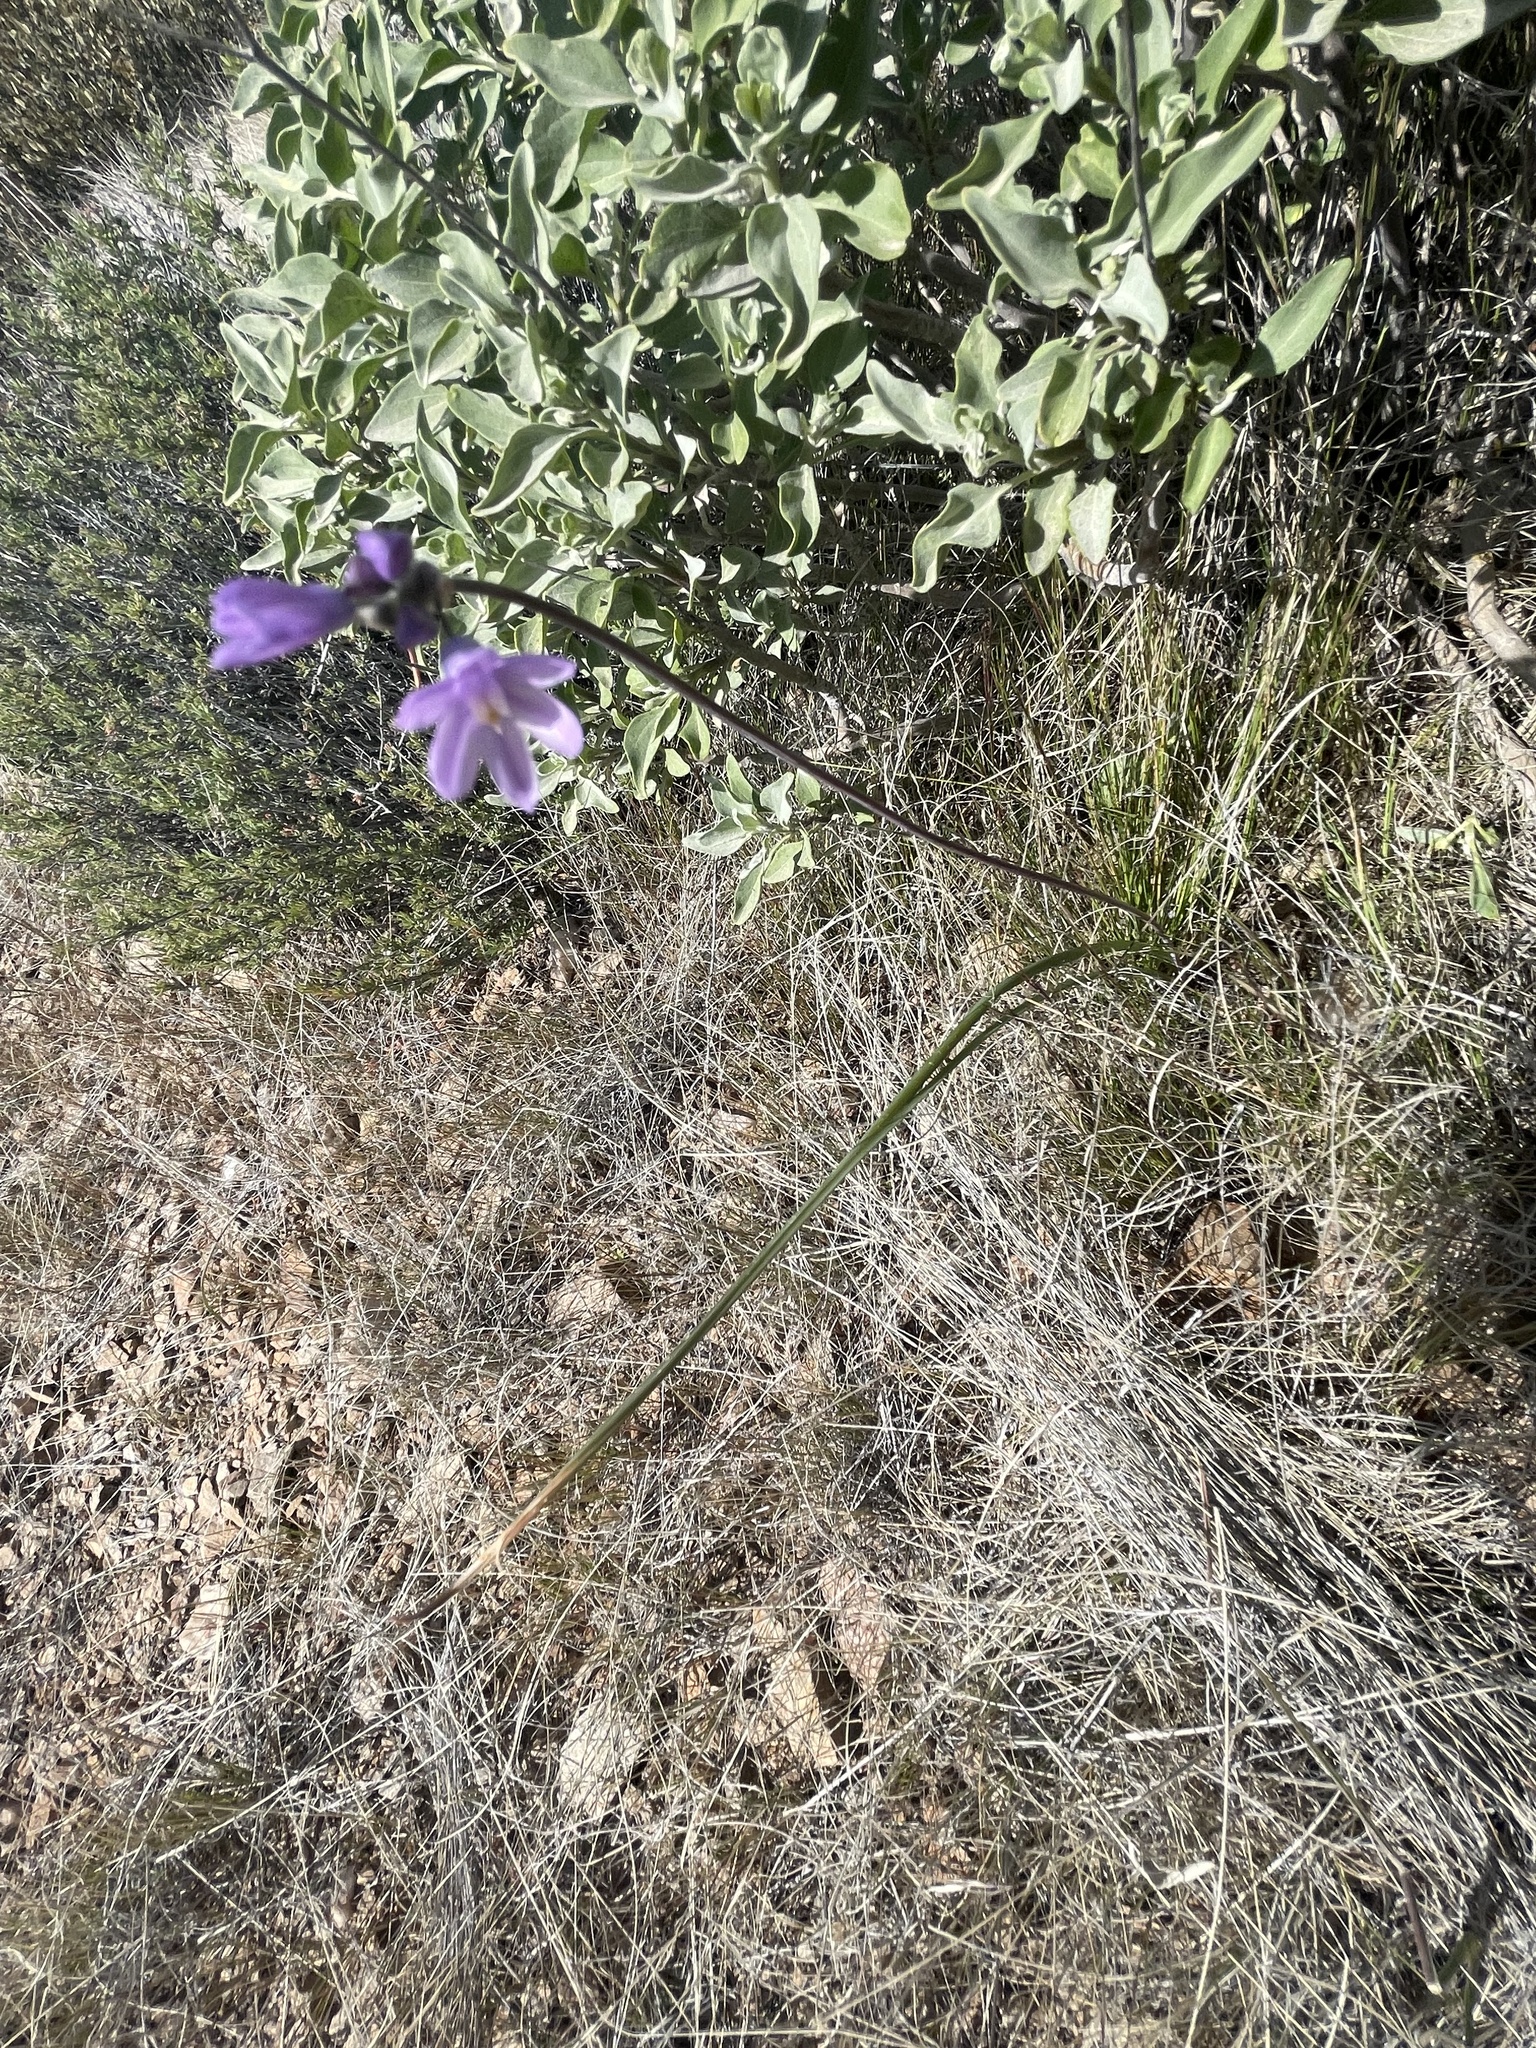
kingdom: Plantae
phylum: Tracheophyta
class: Liliopsida
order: Asparagales
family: Asparagaceae
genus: Dipterostemon
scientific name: Dipterostemon capitatus
